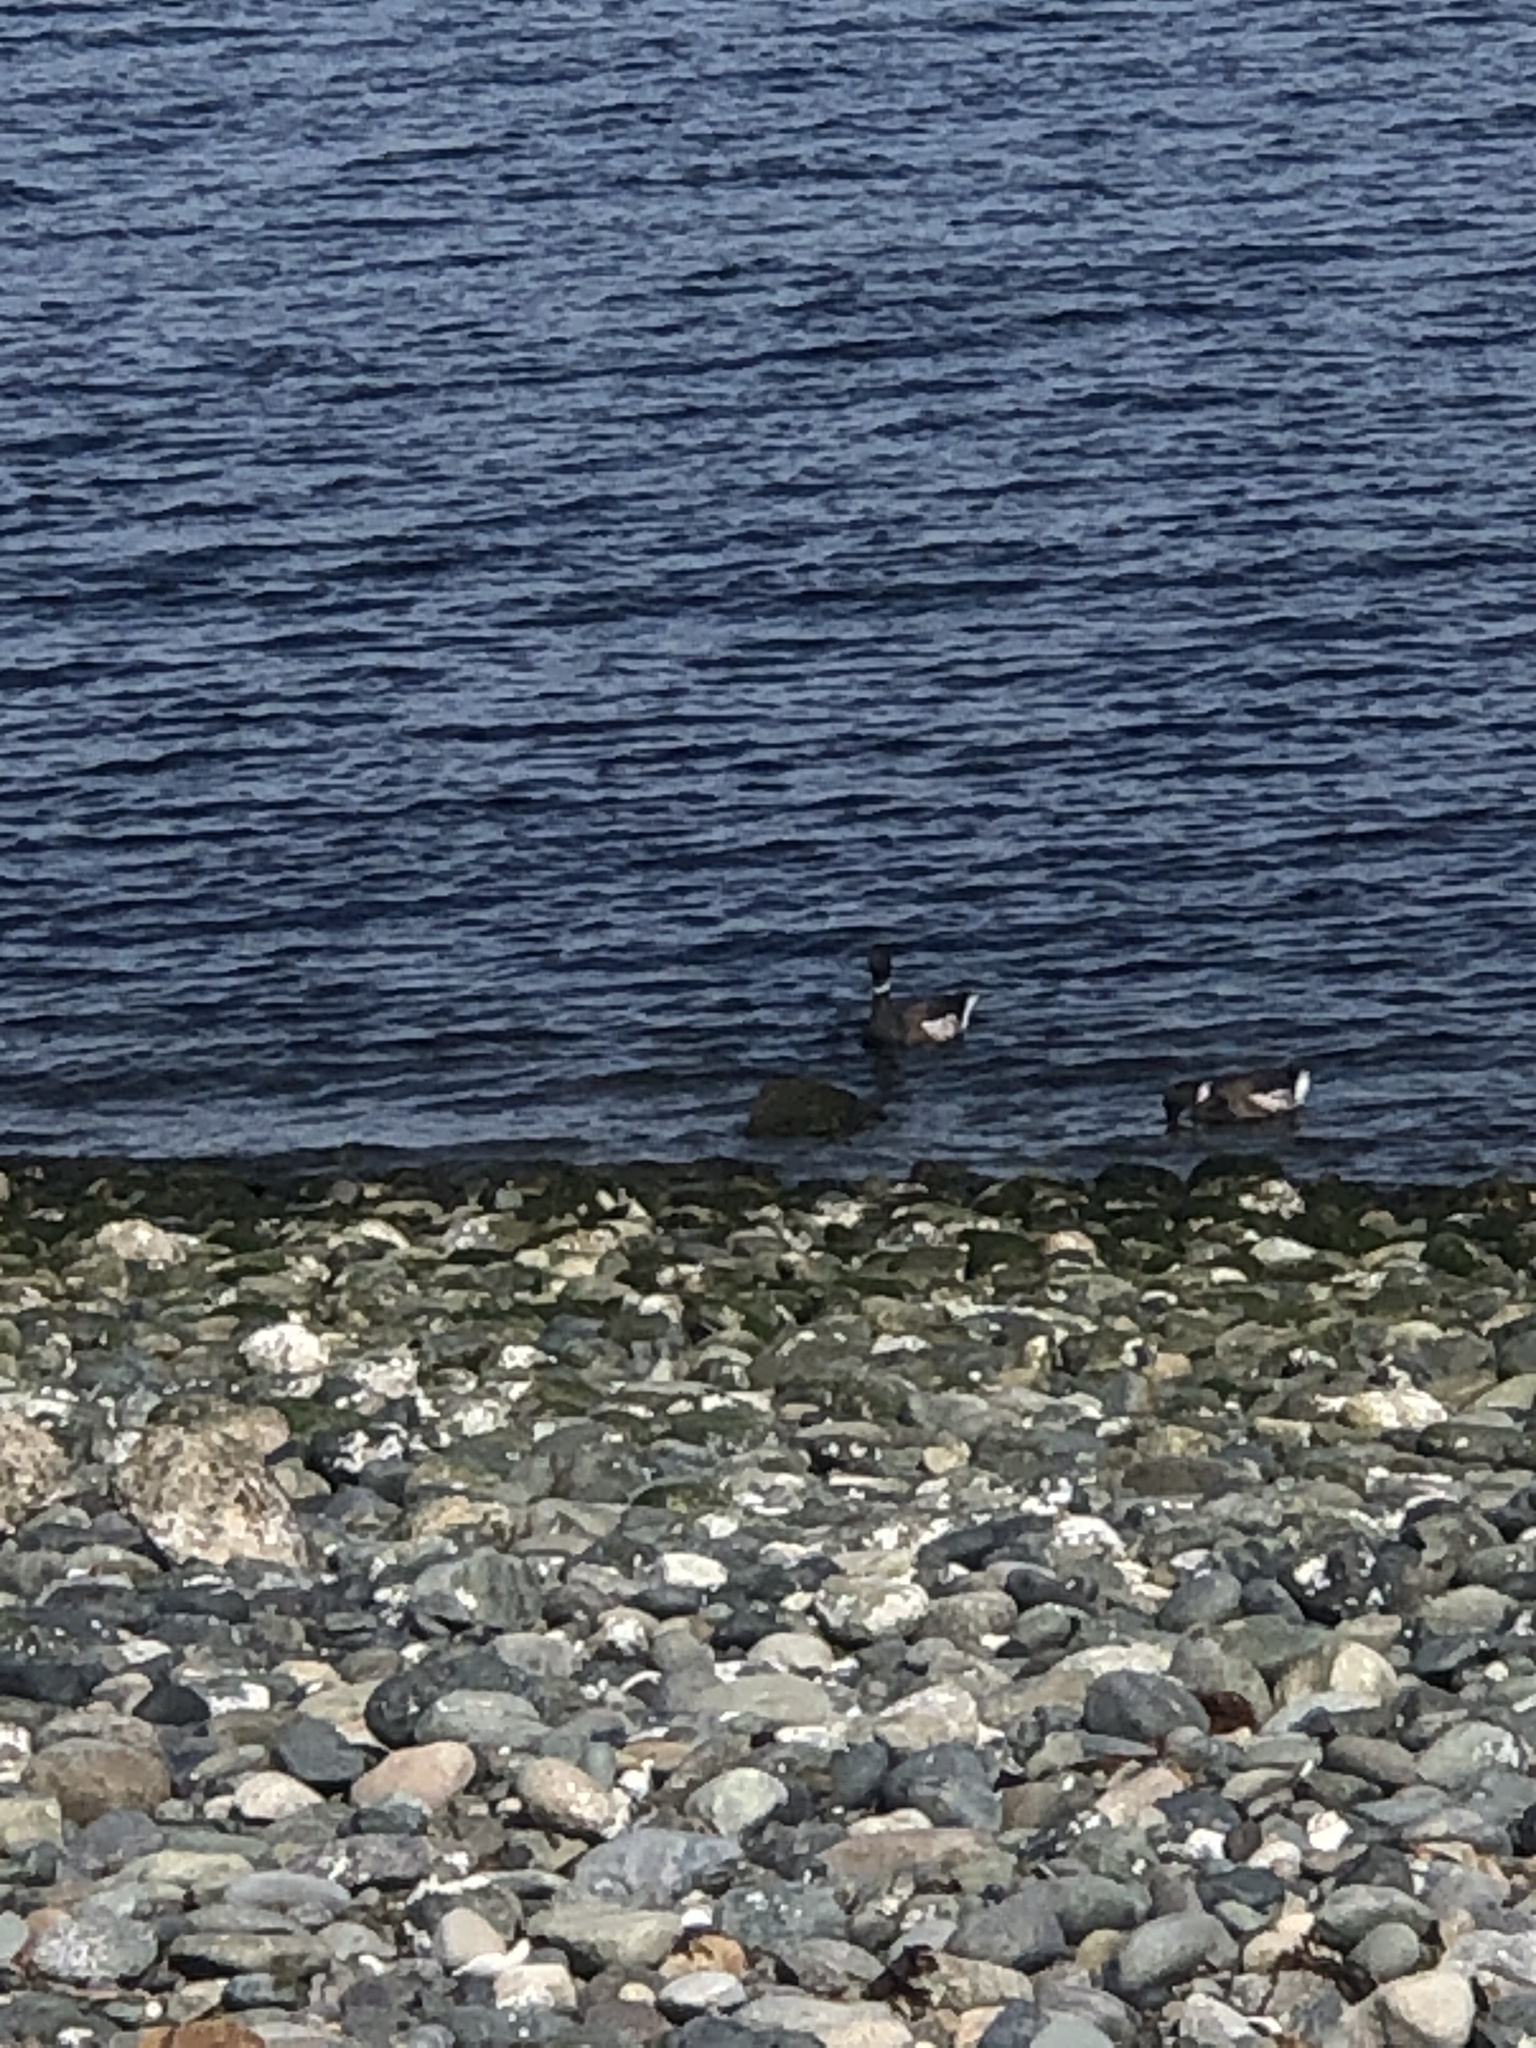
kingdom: Animalia
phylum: Chordata
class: Aves
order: Anseriformes
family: Anatidae
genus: Branta
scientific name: Branta bernicla
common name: Brant goose
